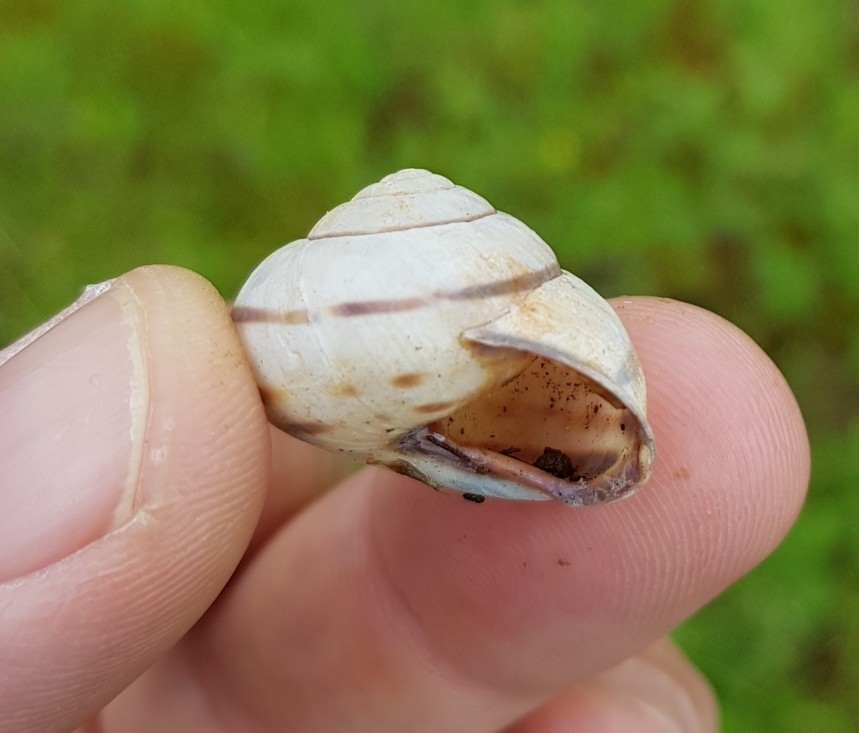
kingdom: Animalia
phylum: Mollusca
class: Gastropoda
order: Stylommatophora
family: Helicidae
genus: Cepaea
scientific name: Cepaea nemoralis
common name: Grovesnail
